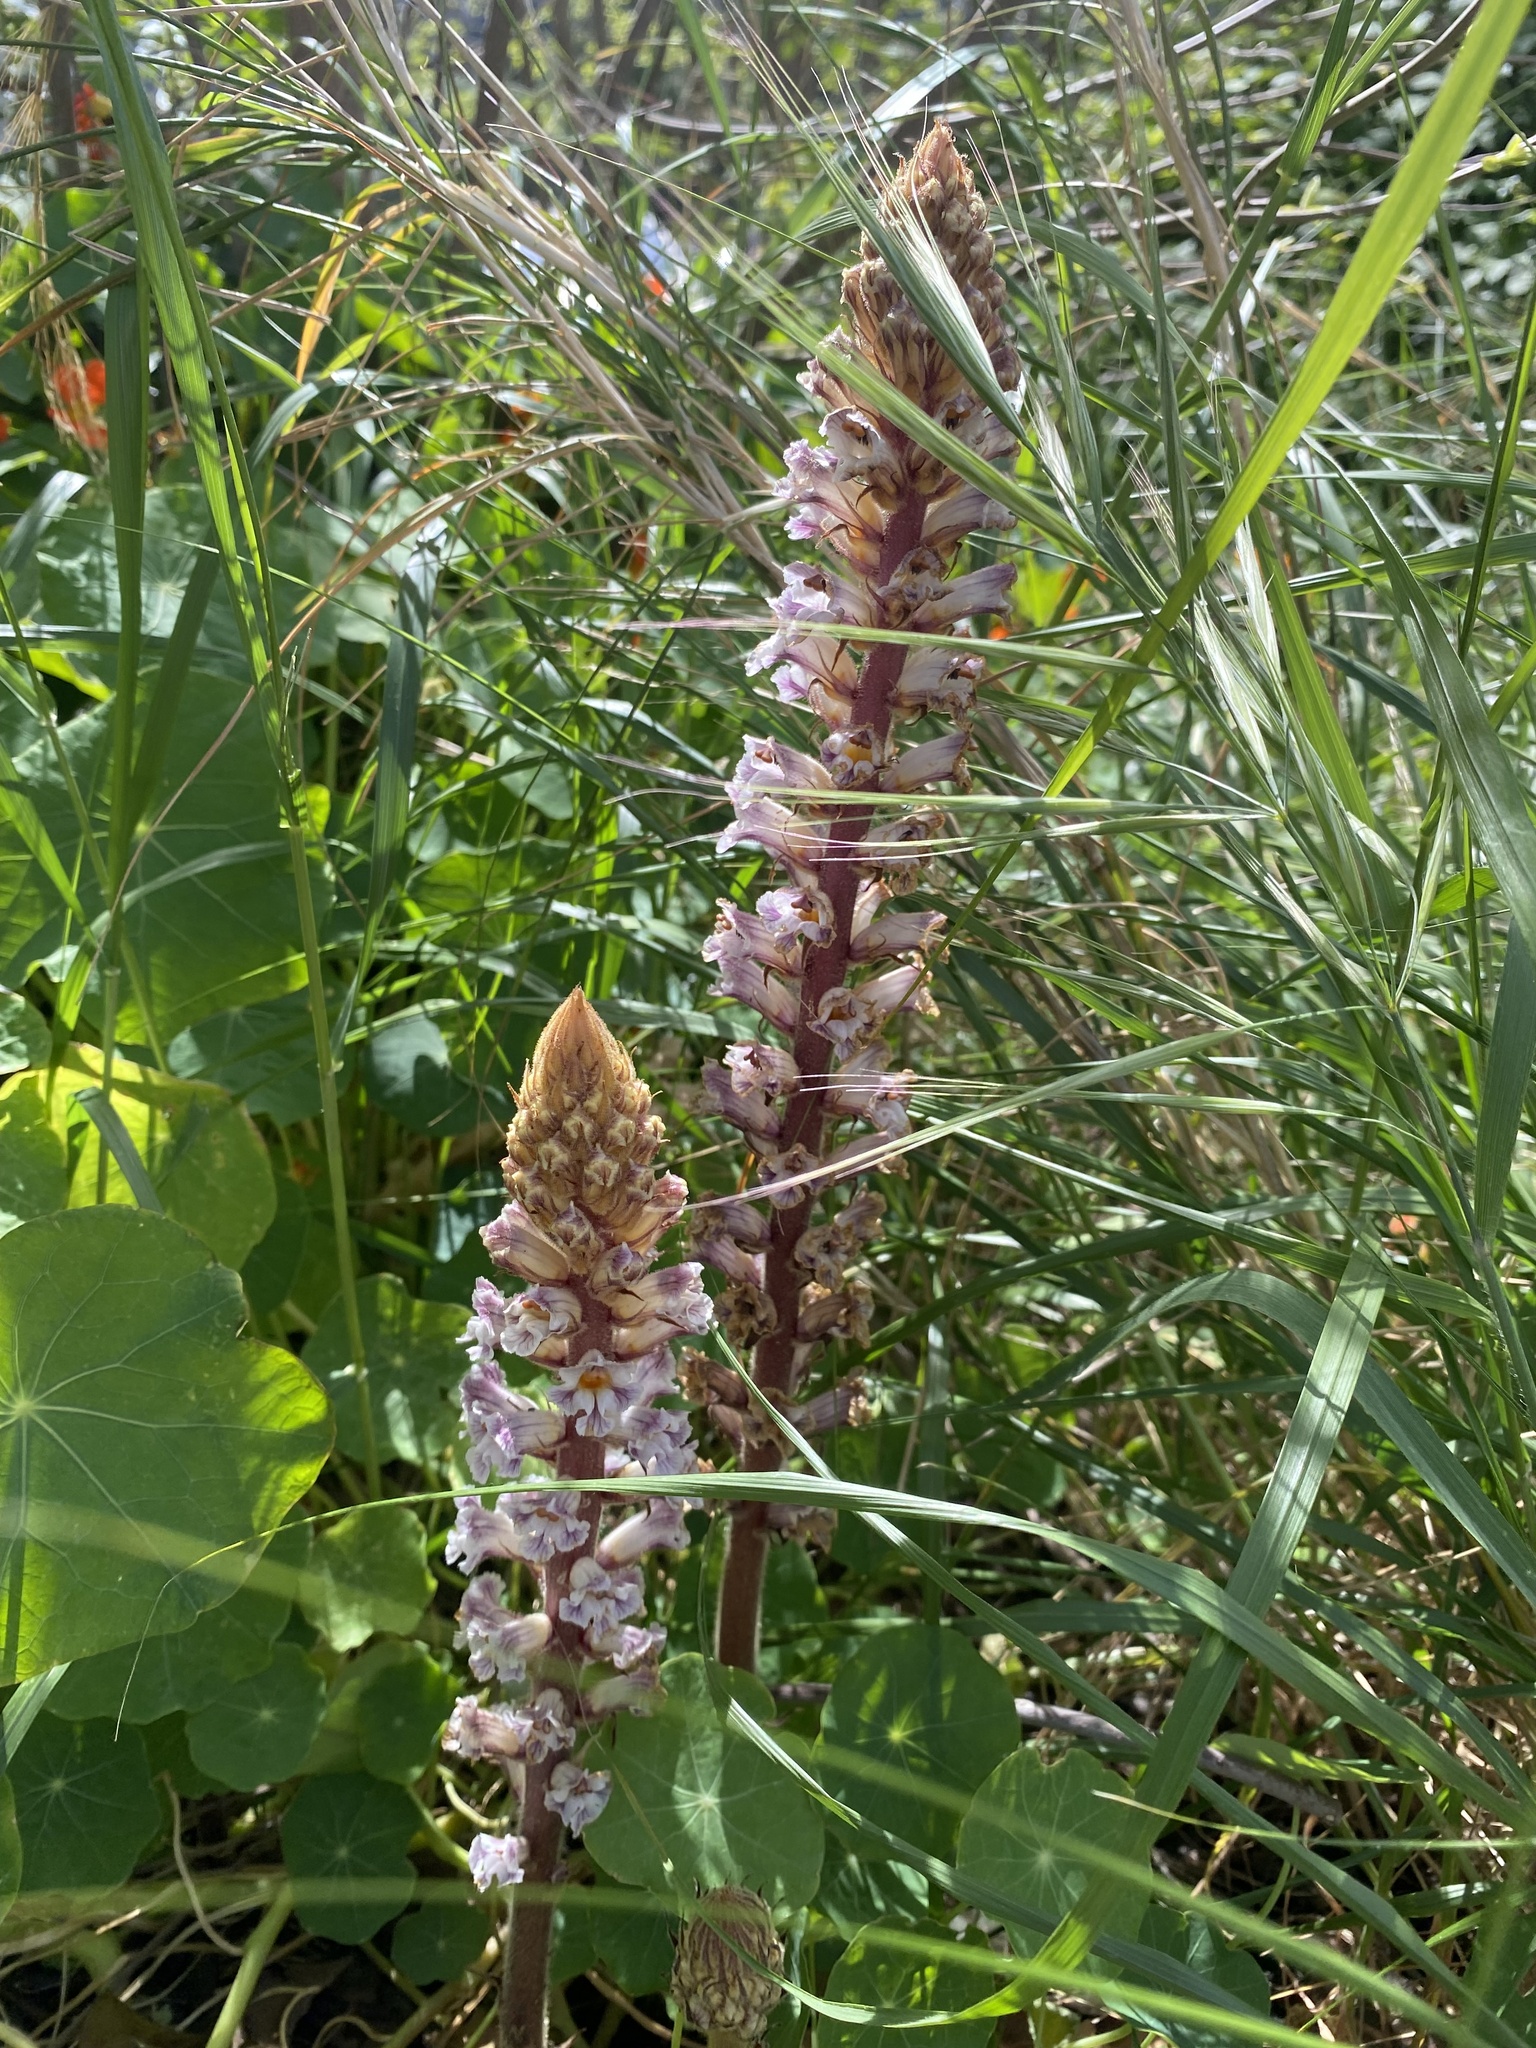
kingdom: Plantae
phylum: Tracheophyta
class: Magnoliopsida
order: Lamiales
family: Orobanchaceae
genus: Orobanche
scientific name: Orobanche crenata
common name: Bean broomrape
